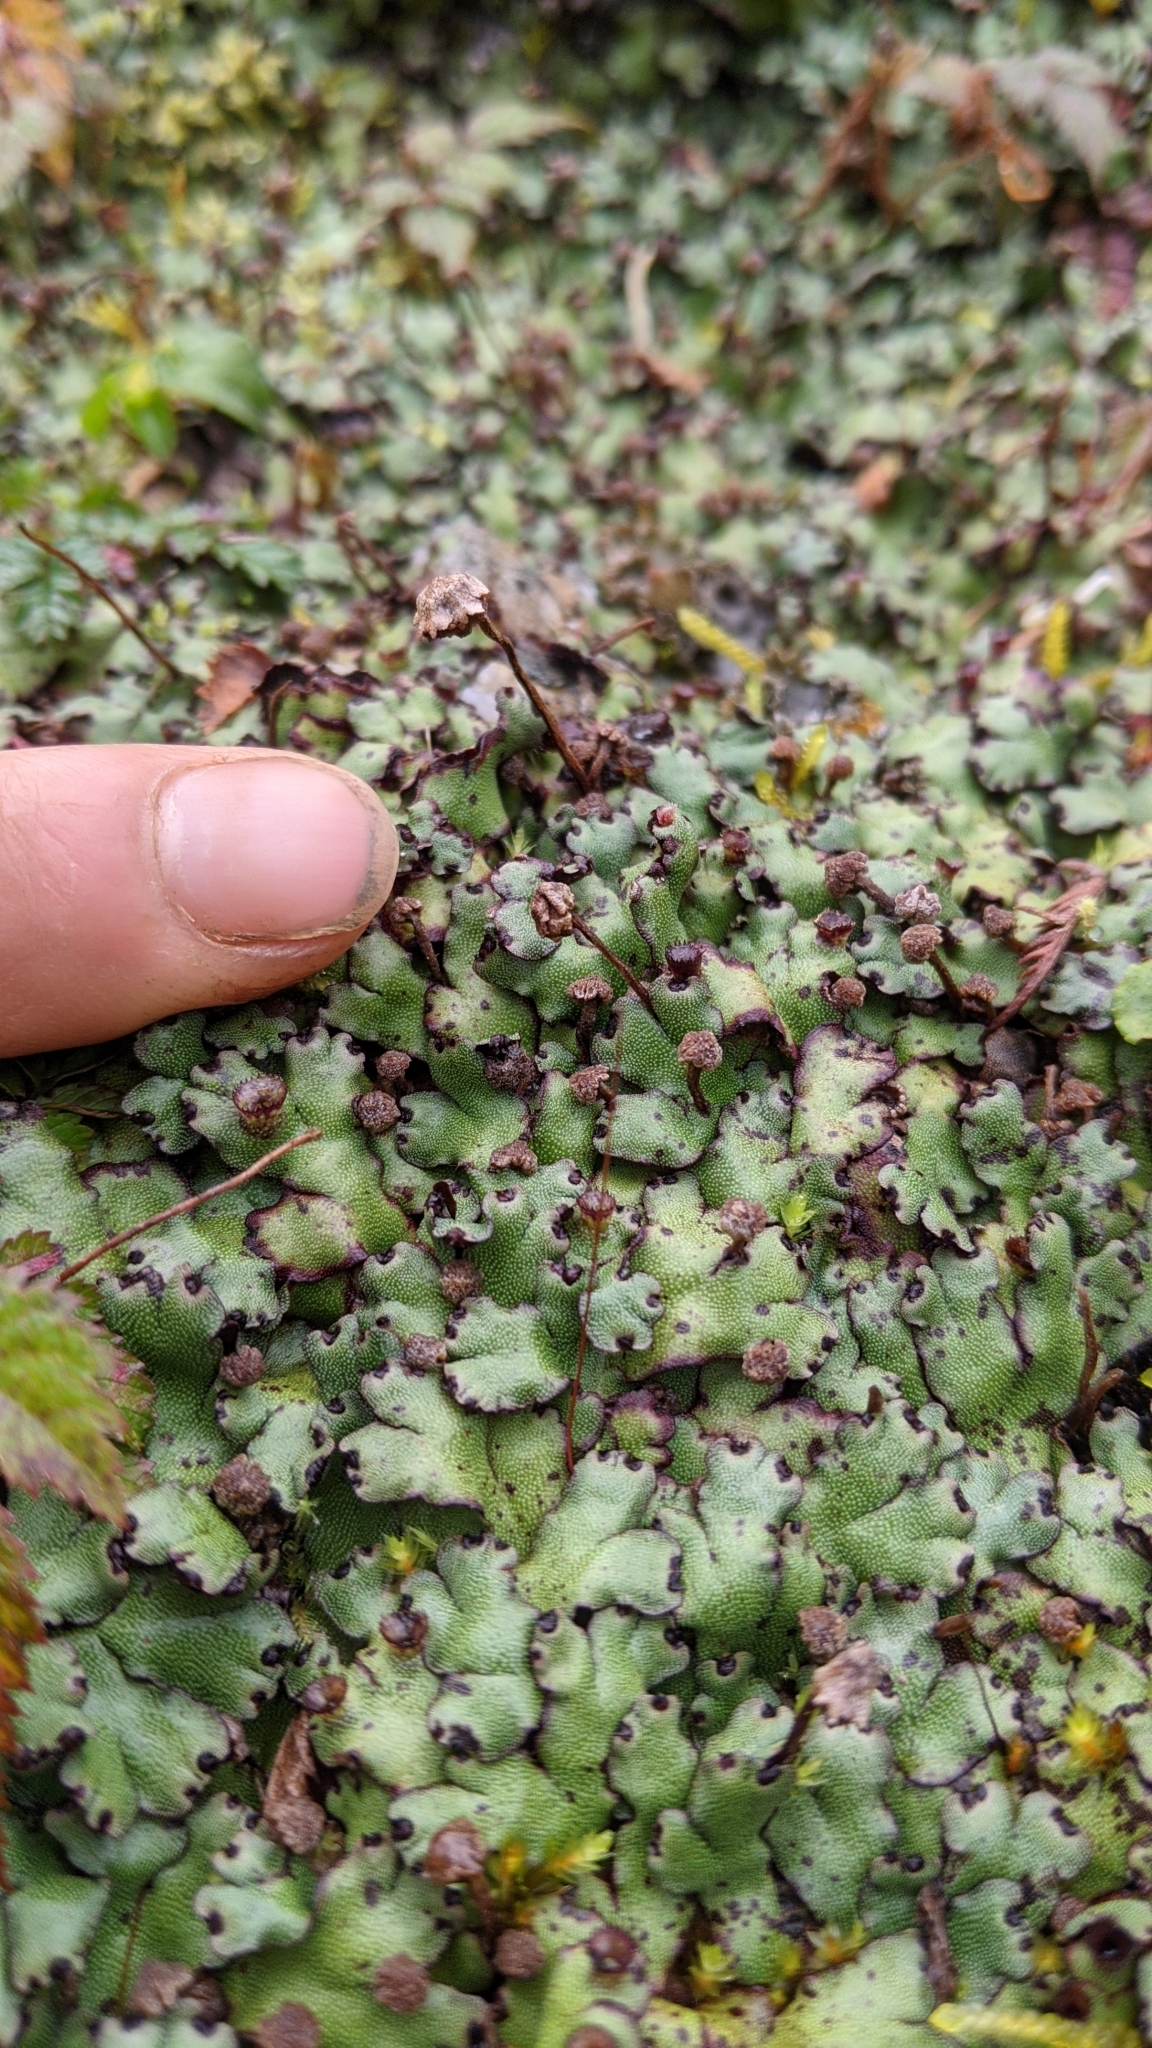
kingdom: Plantae
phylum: Marchantiophyta
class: Marchantiopsida
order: Marchantiales
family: Marchantiaceae
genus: Marchantia
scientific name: Marchantia paleacea
